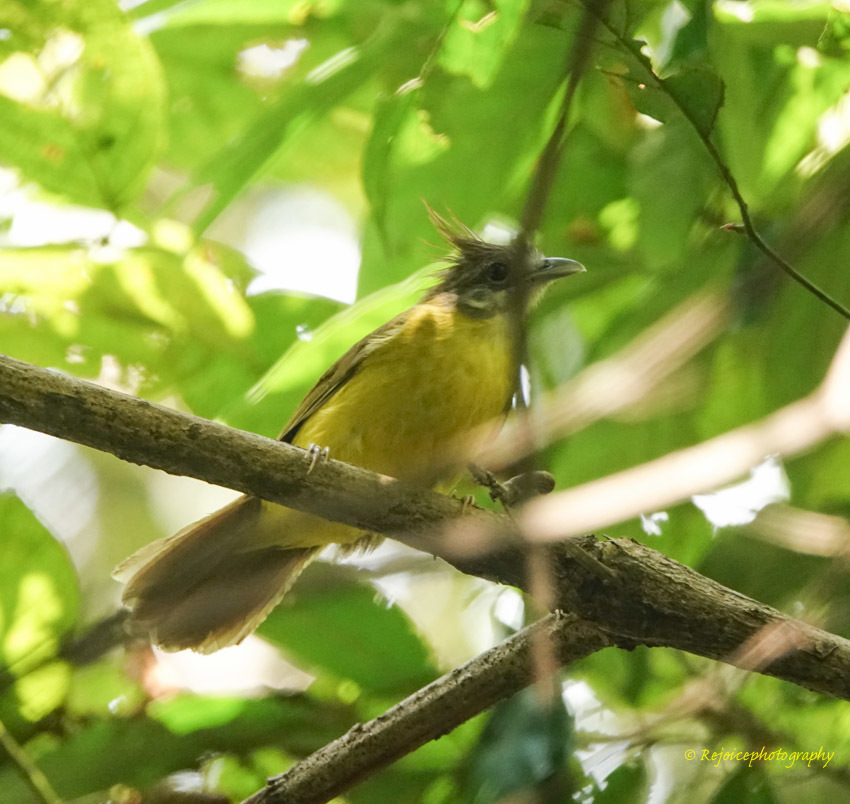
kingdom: Animalia
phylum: Chordata
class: Aves
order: Passeriformes
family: Pycnonotidae
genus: Alophoixus
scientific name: Alophoixus flaveolus
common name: White-throated bulbul
